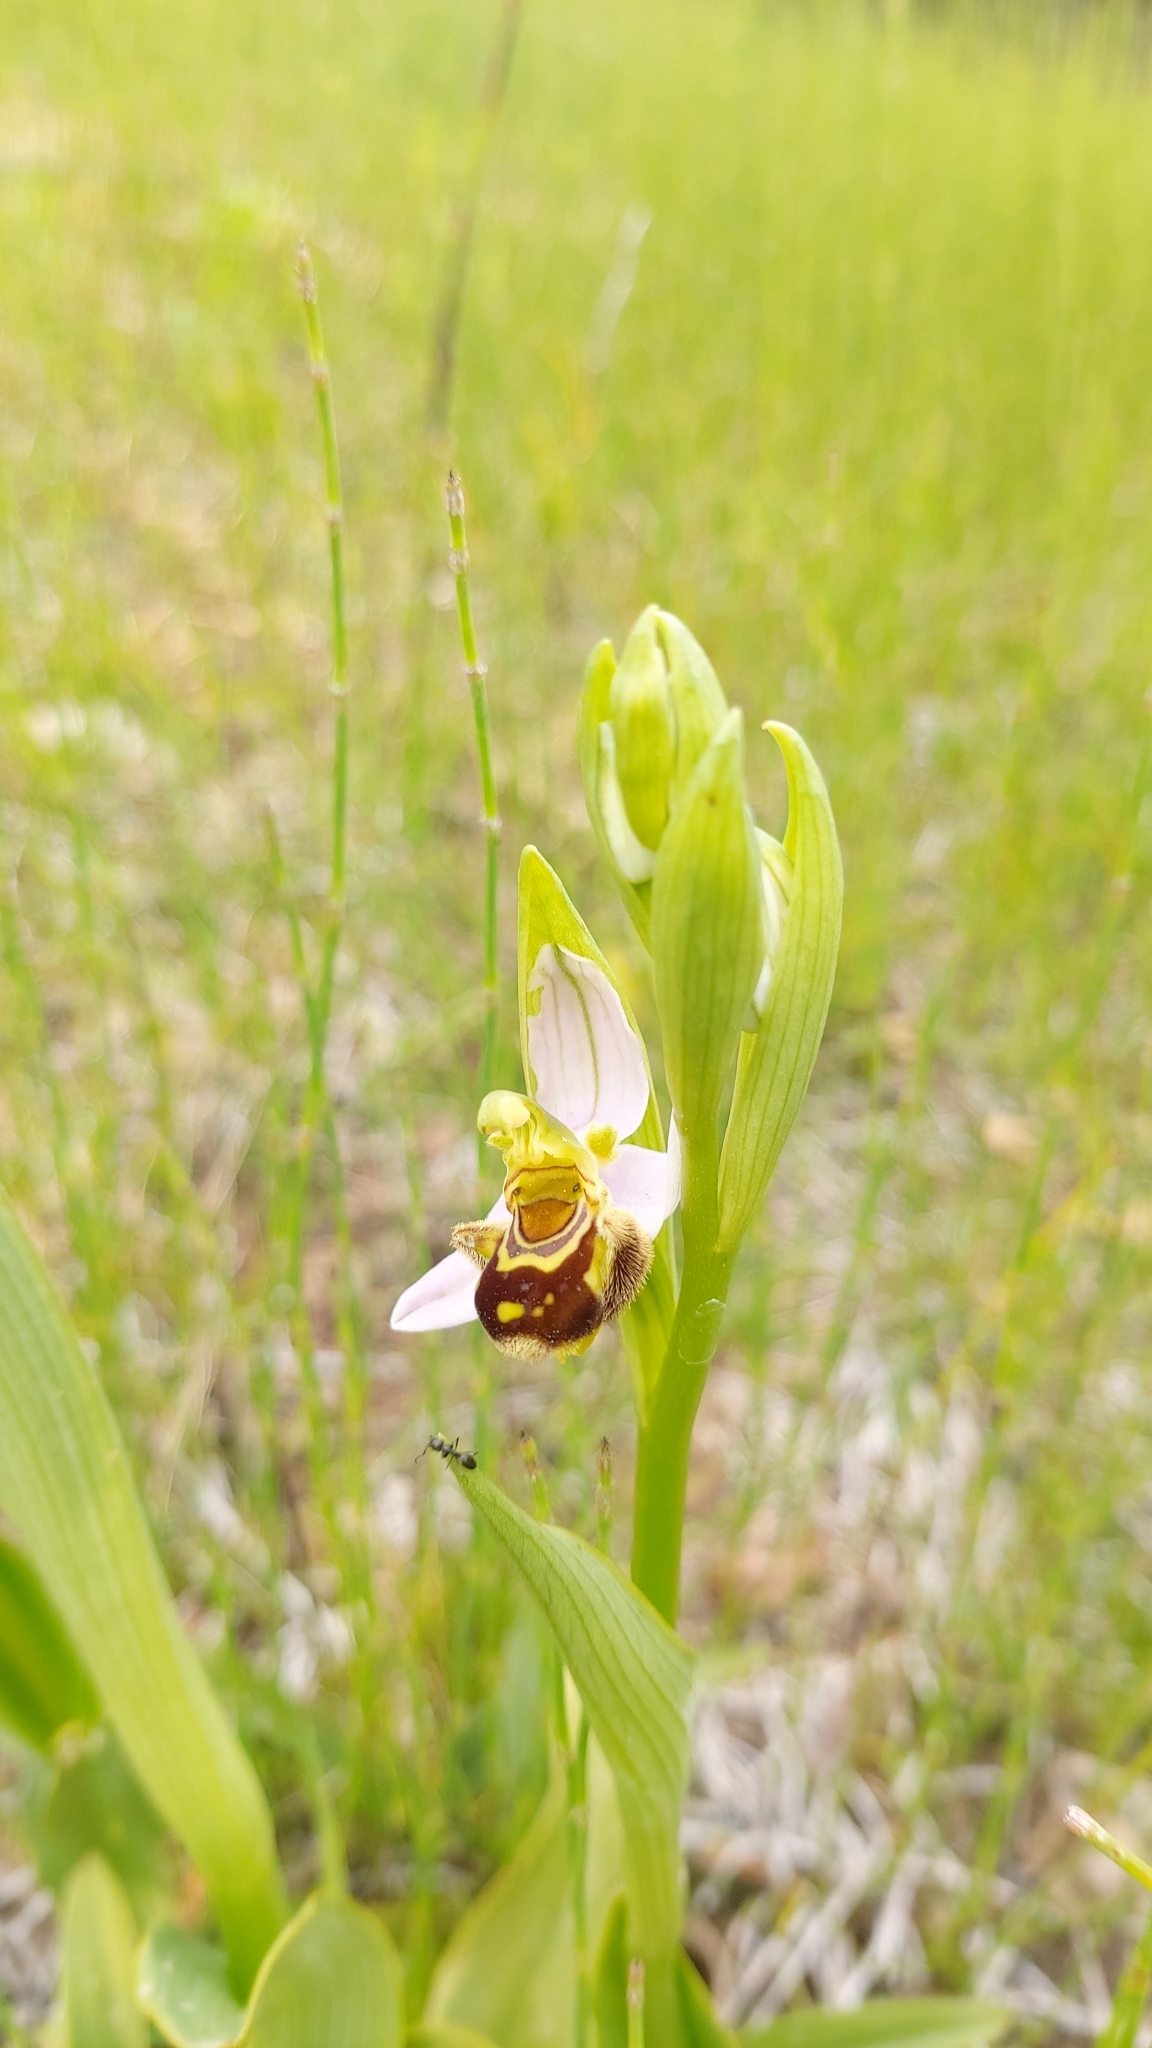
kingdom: Plantae
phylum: Tracheophyta
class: Liliopsida
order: Asparagales
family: Orchidaceae
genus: Ophrys
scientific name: Ophrys apifera
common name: Bee orchid
